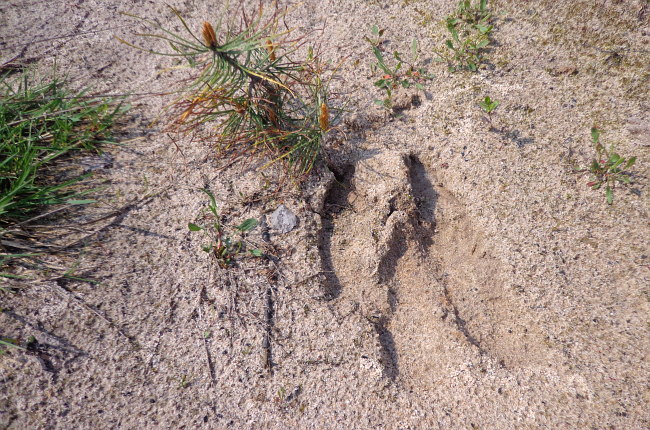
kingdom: Animalia
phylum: Chordata
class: Mammalia
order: Artiodactyla
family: Suidae
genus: Sus
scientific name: Sus scrofa
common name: Wild boar
